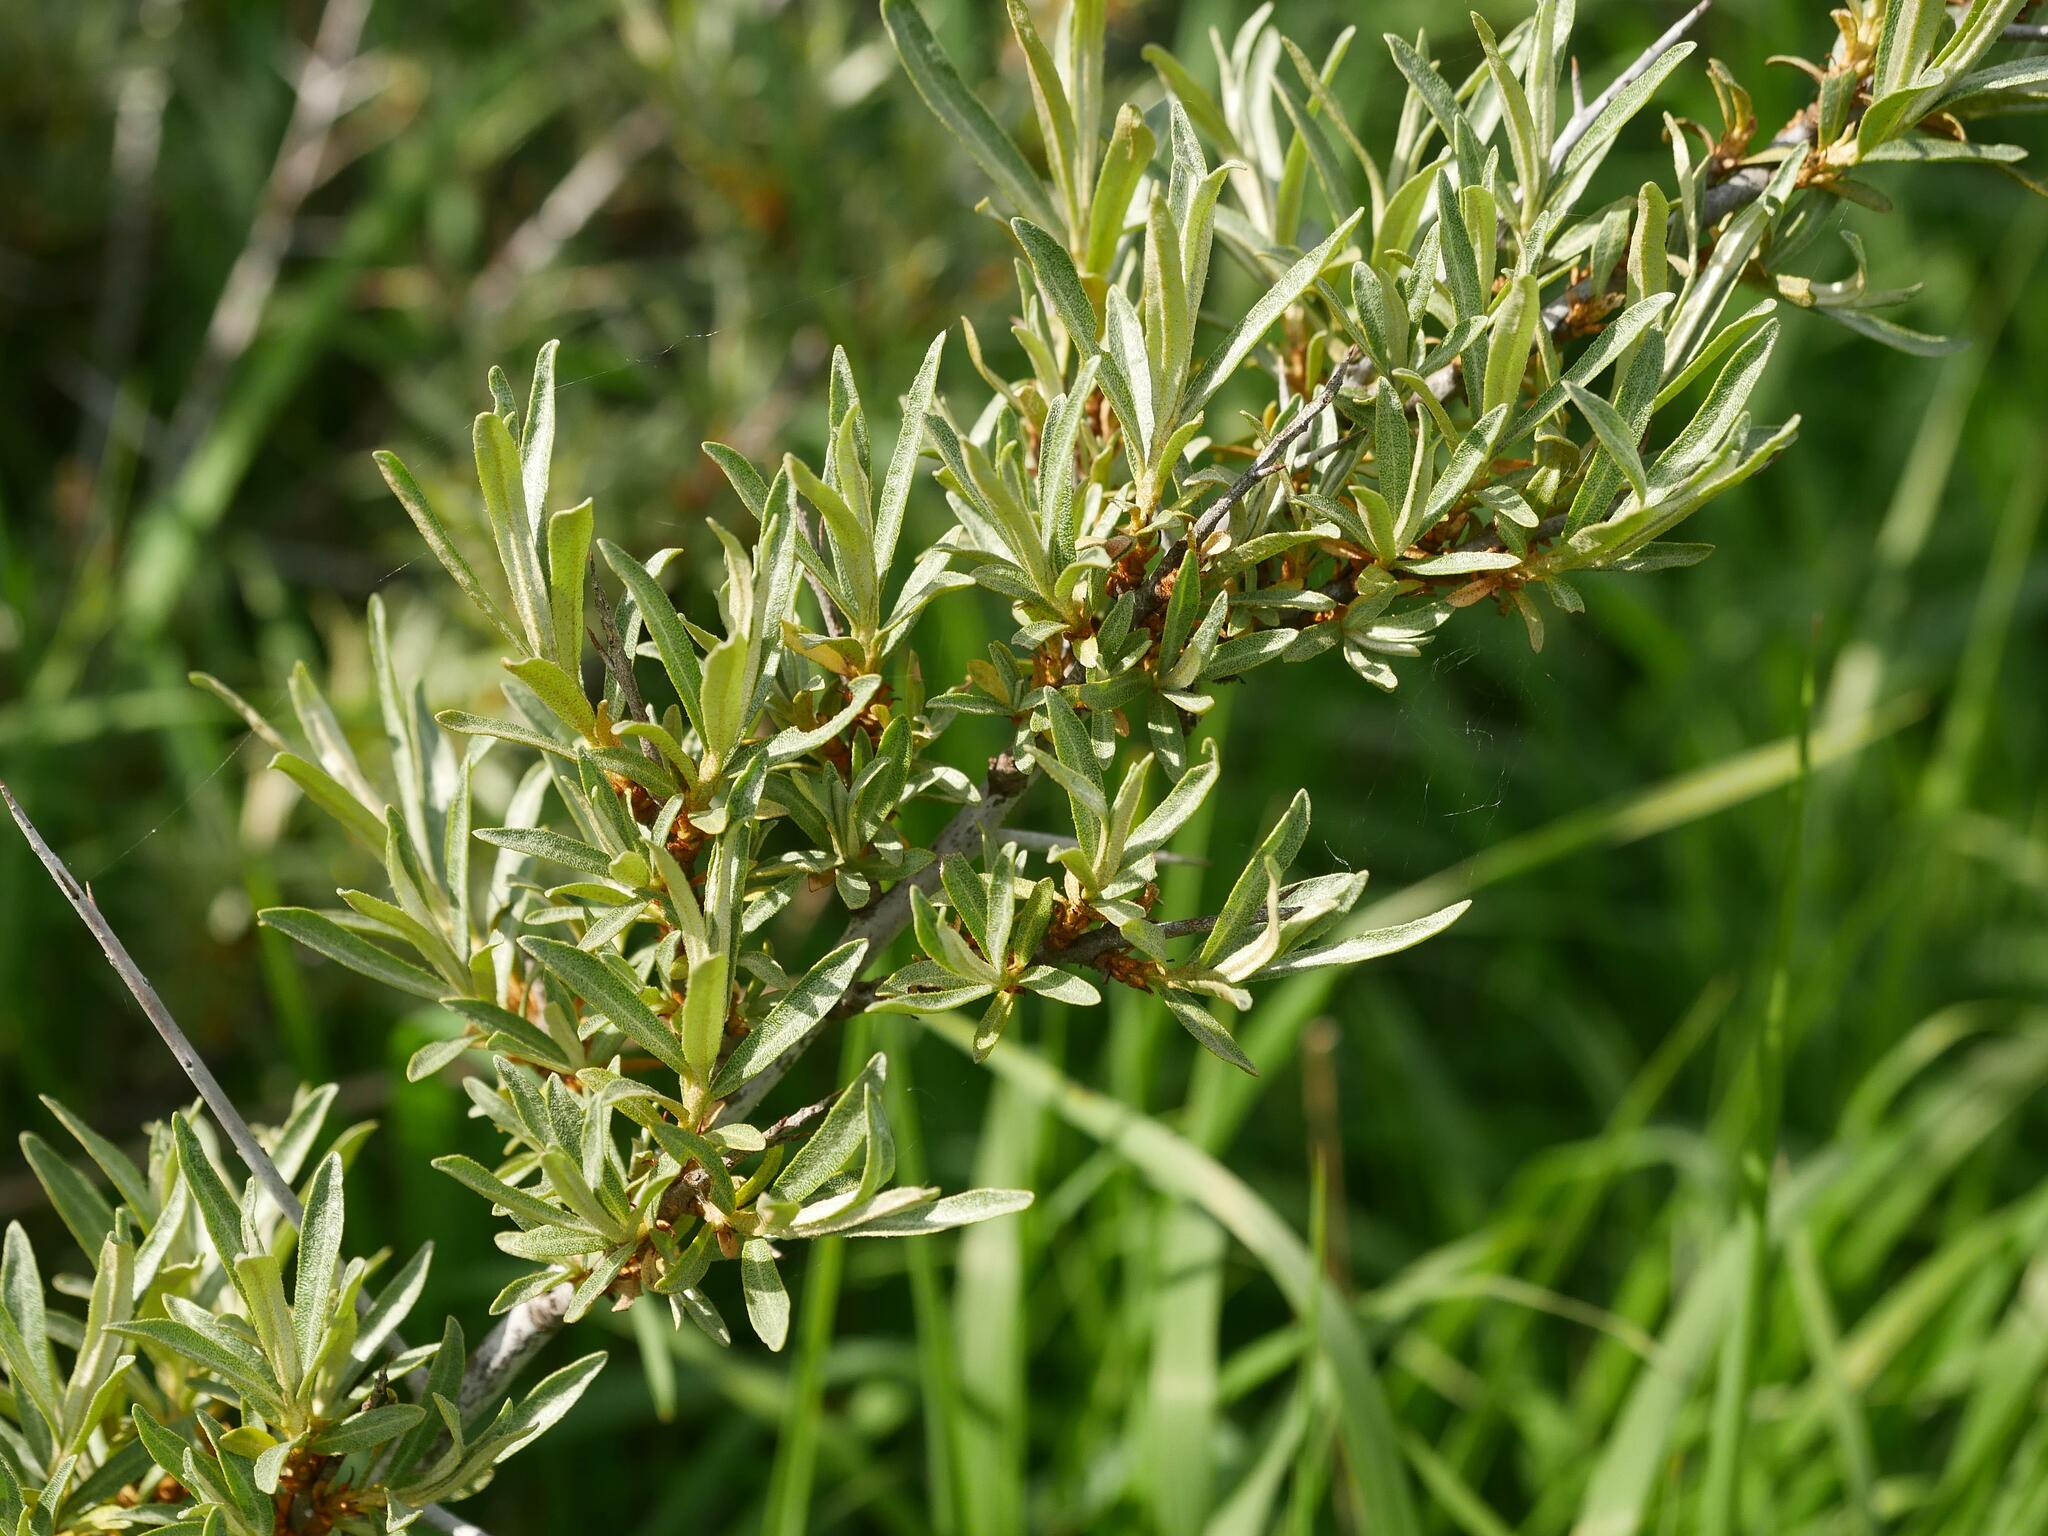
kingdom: Plantae
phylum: Tracheophyta
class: Magnoliopsida
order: Rosales
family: Elaeagnaceae
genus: Hippophae
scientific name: Hippophae rhamnoides
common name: Sea-buckthorn
